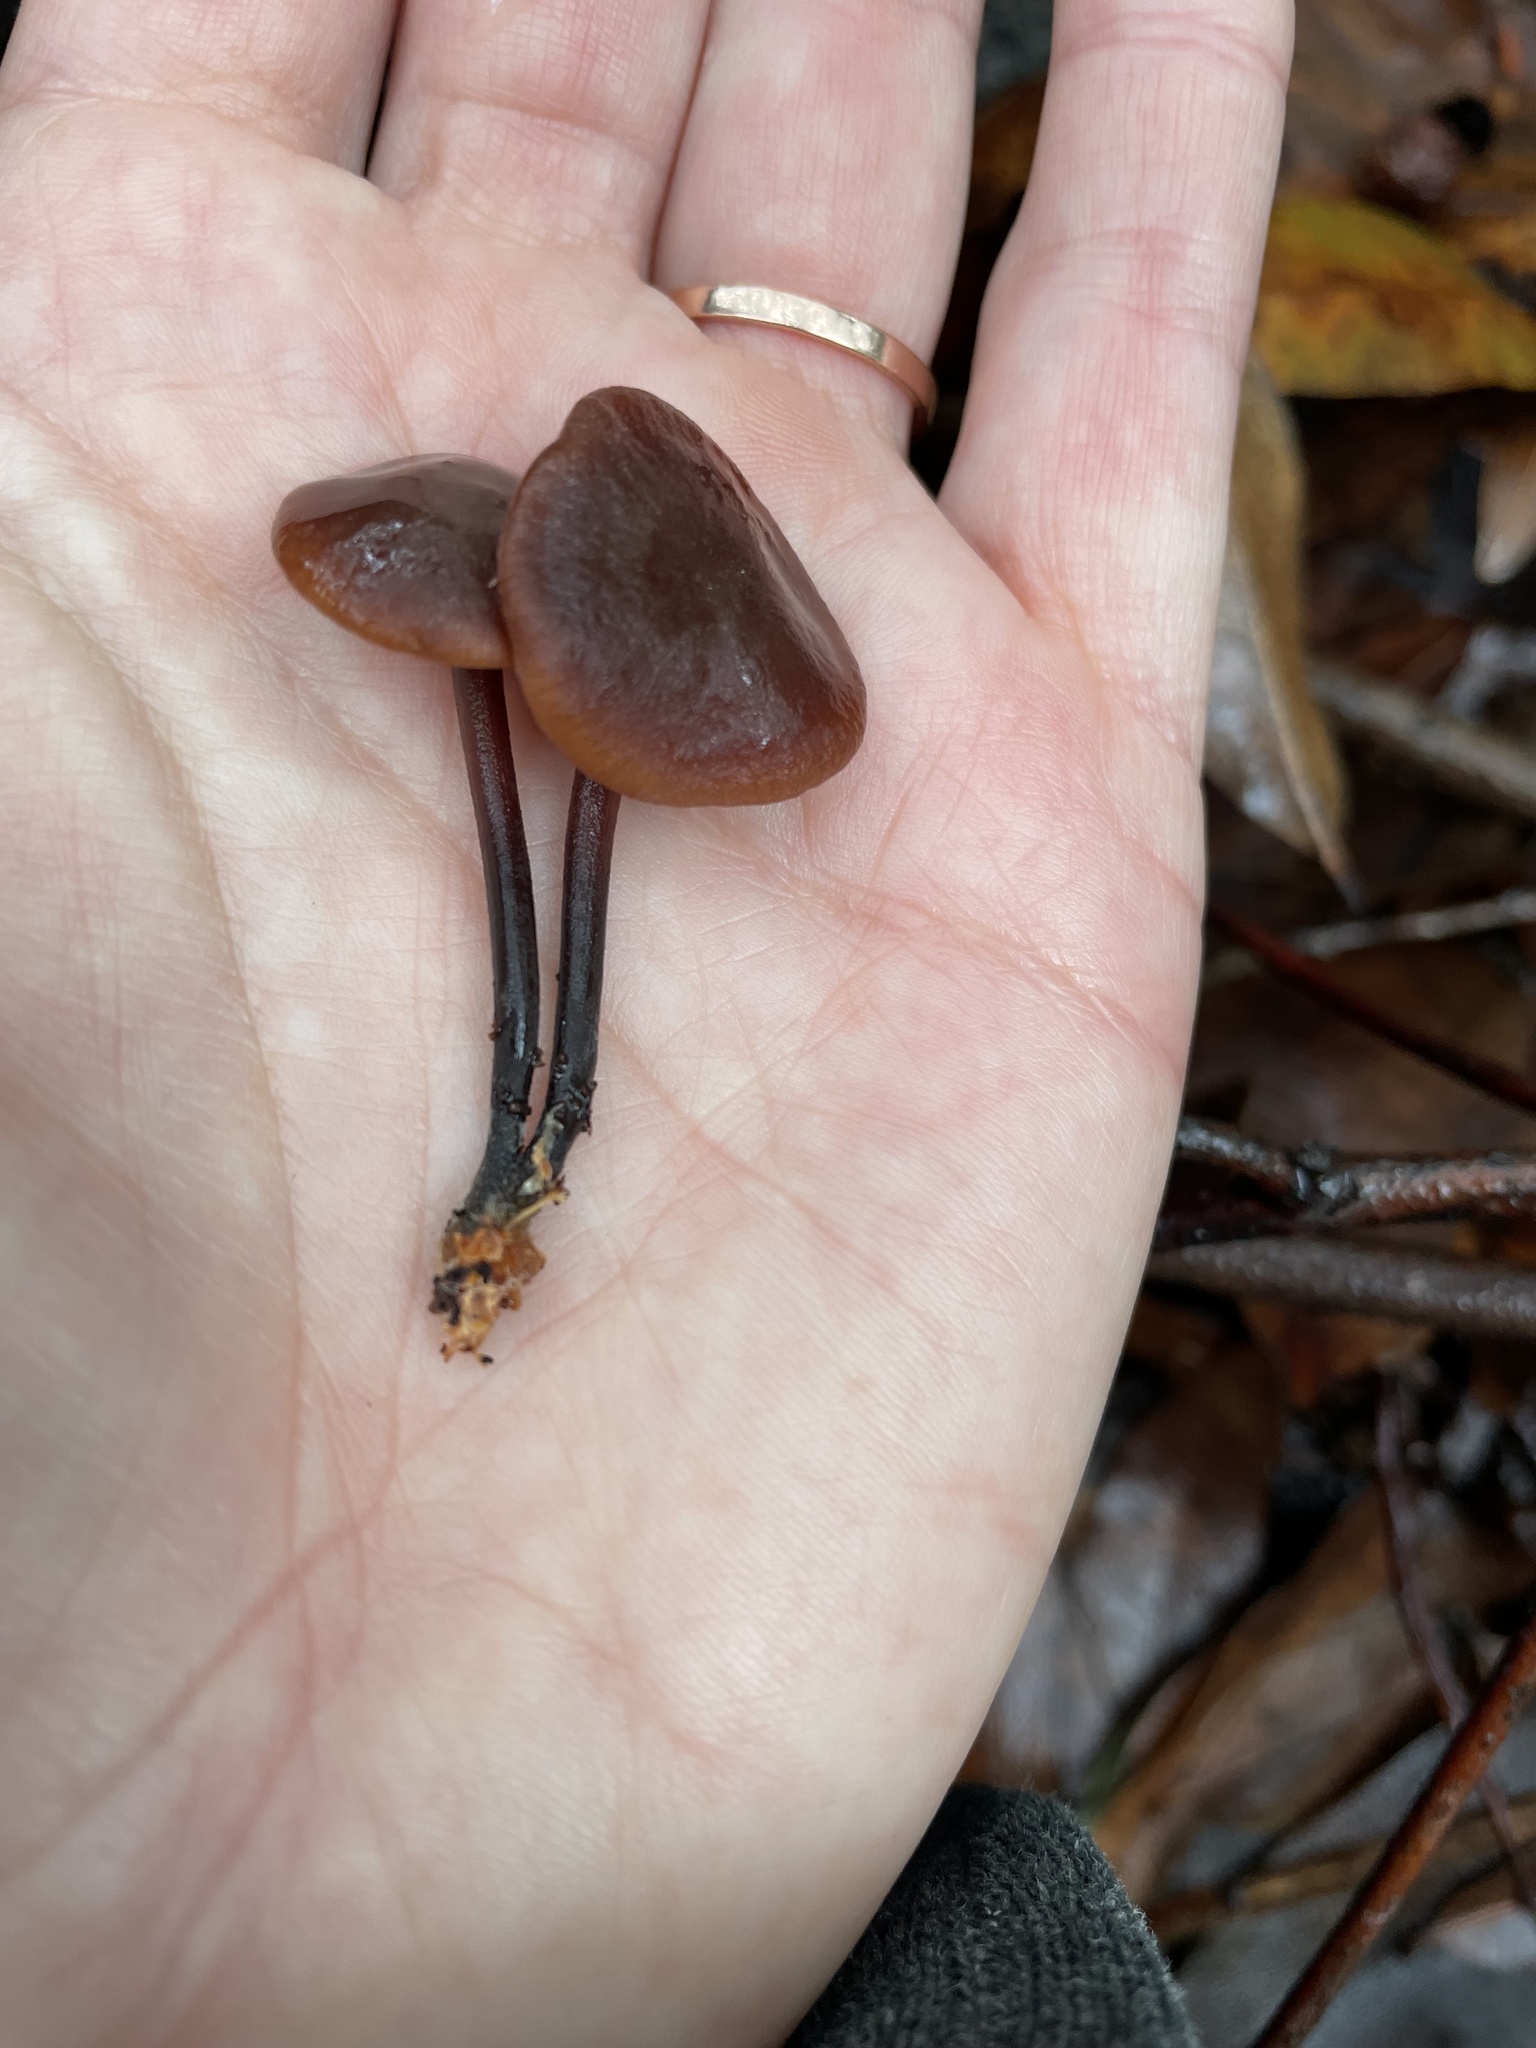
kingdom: Fungi
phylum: Basidiomycota
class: Agaricomycetes
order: Agaricales
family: Omphalotaceae
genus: Gymnopus
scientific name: Gymnopus brassicolens
